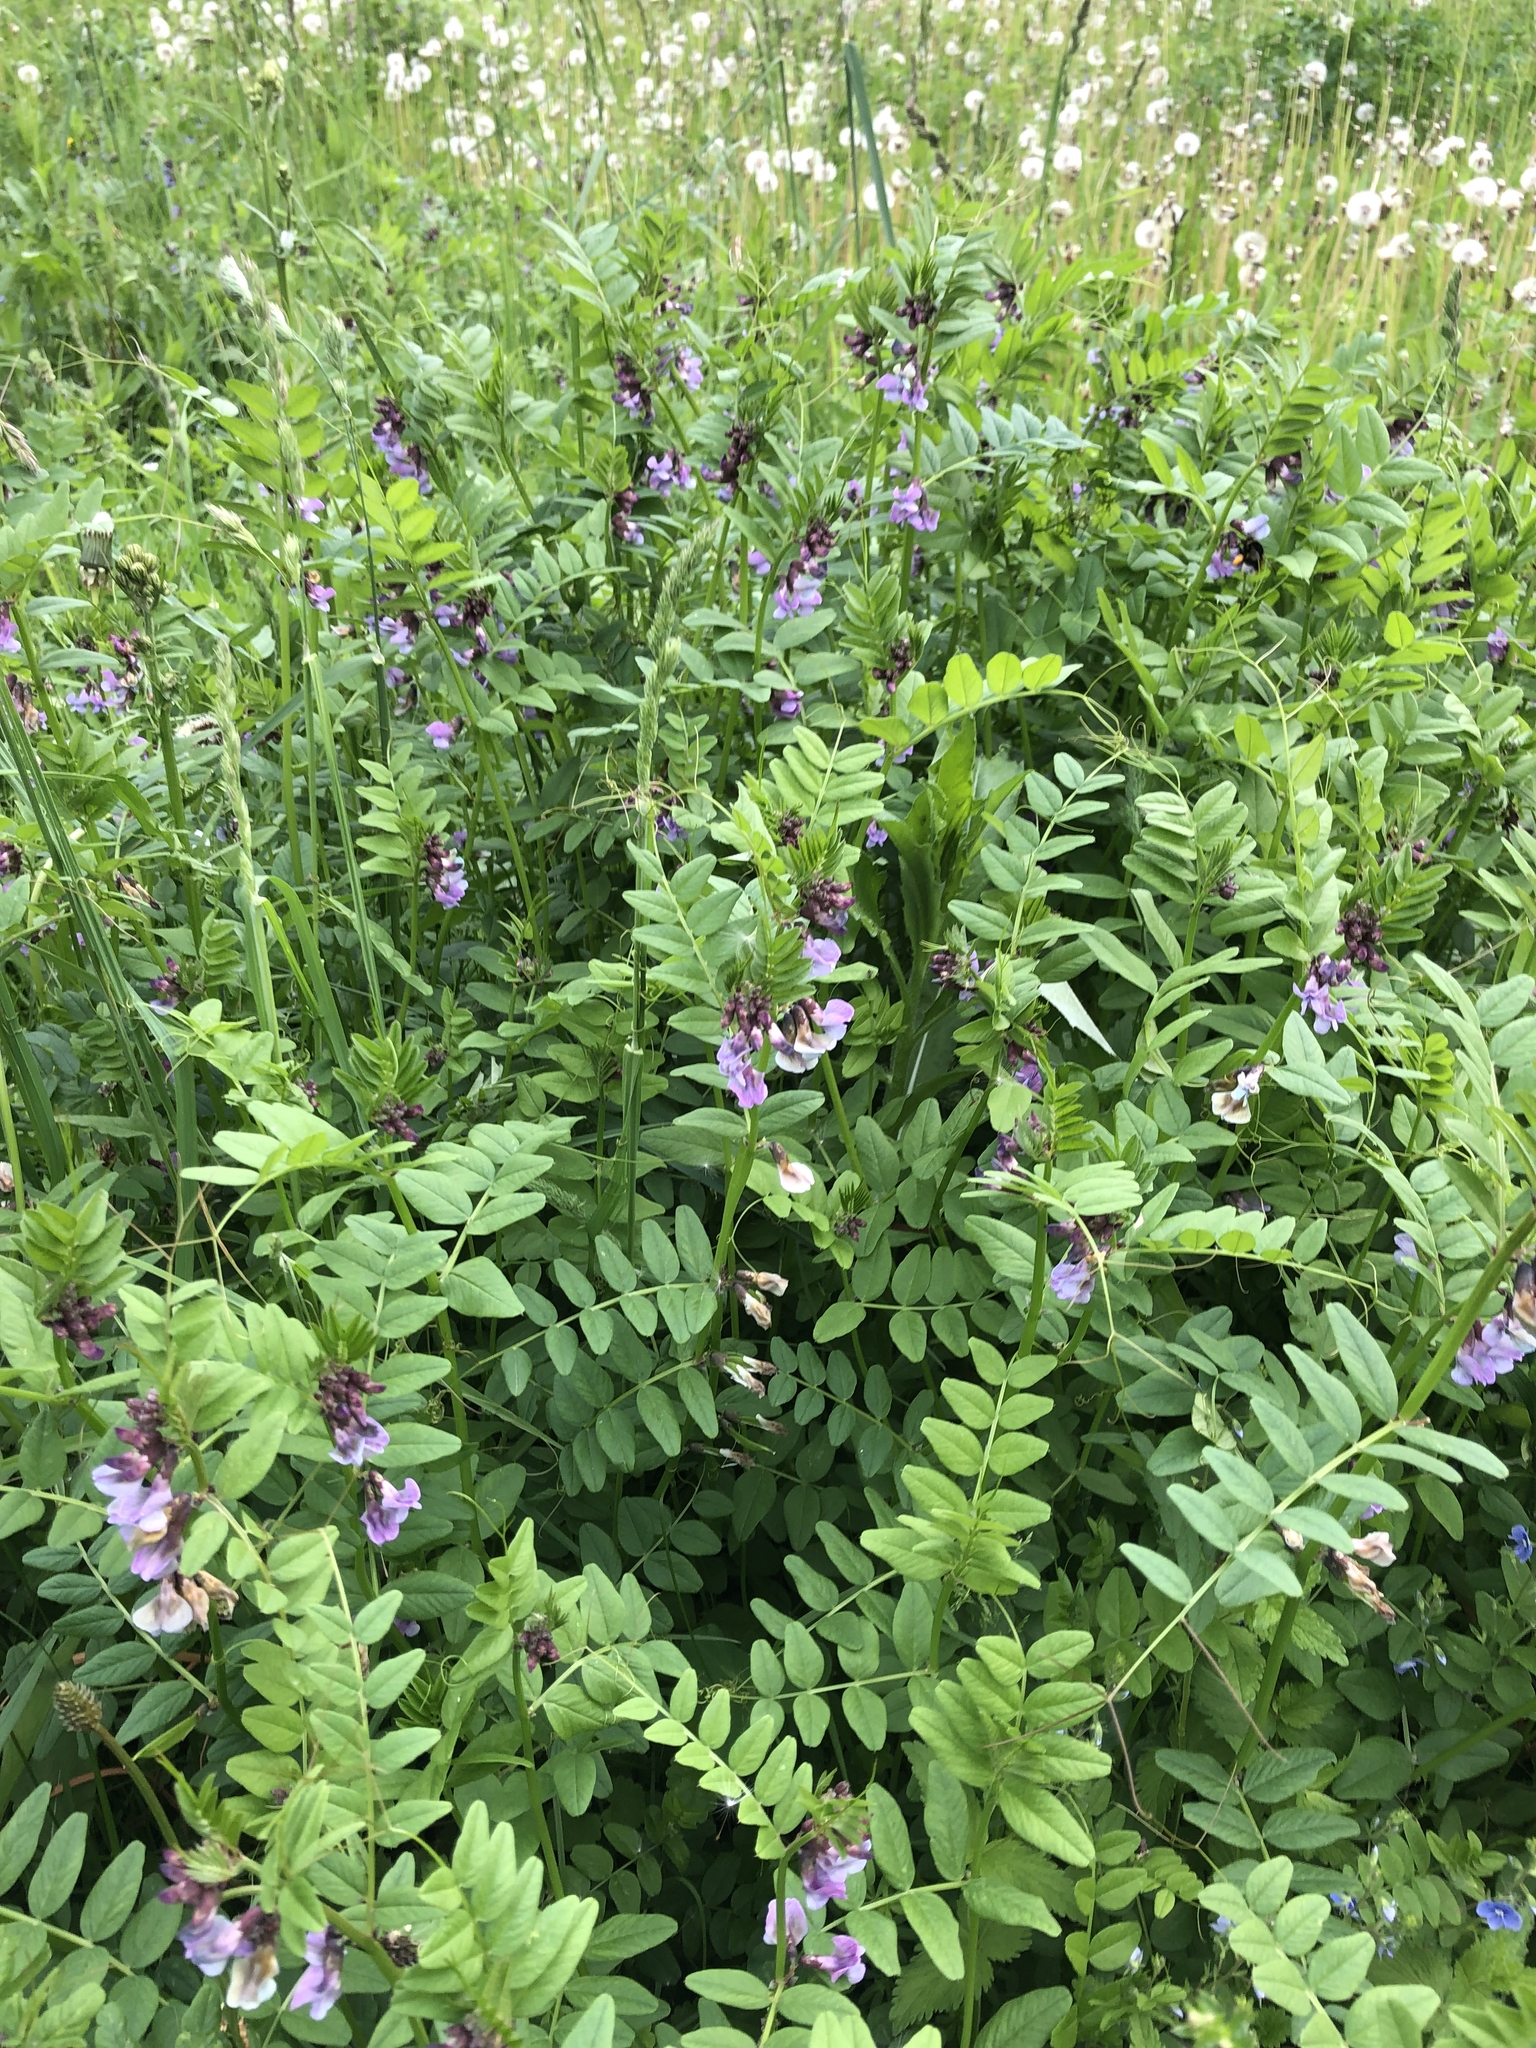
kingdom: Plantae
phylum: Tracheophyta
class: Magnoliopsida
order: Fabales
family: Fabaceae
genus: Vicia
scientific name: Vicia sepium
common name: Bush vetch
